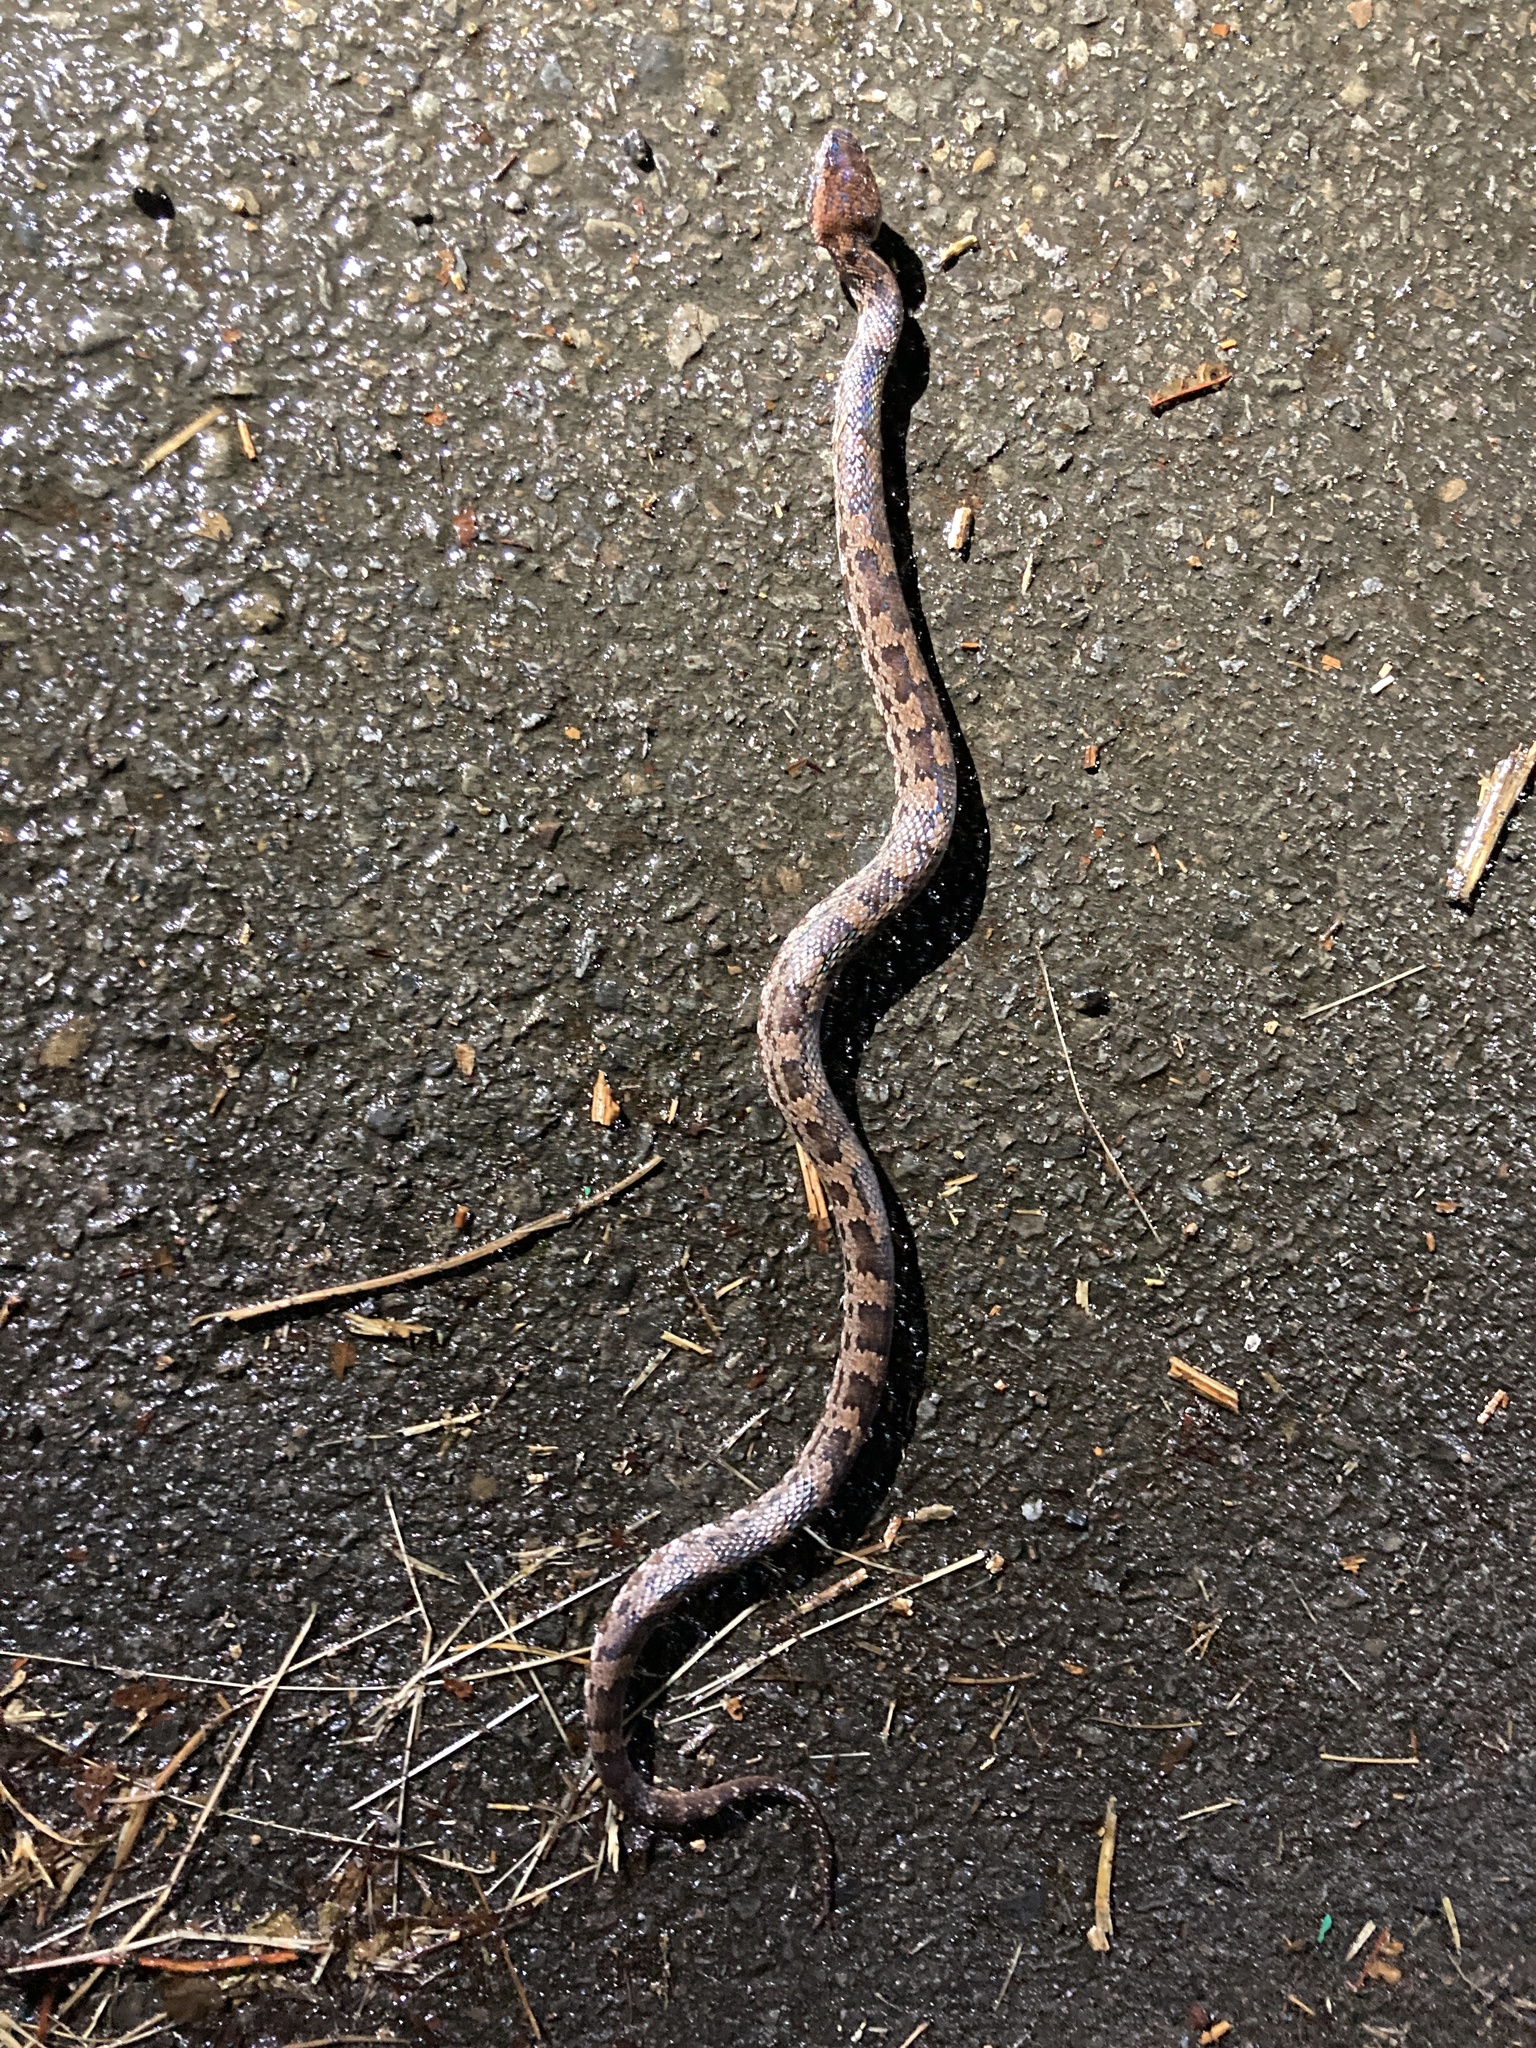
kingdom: Animalia
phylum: Chordata
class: Squamata
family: Viperidae
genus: Ovophis
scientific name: Ovophis makazayazaya
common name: Taiwan mountain pitviper
